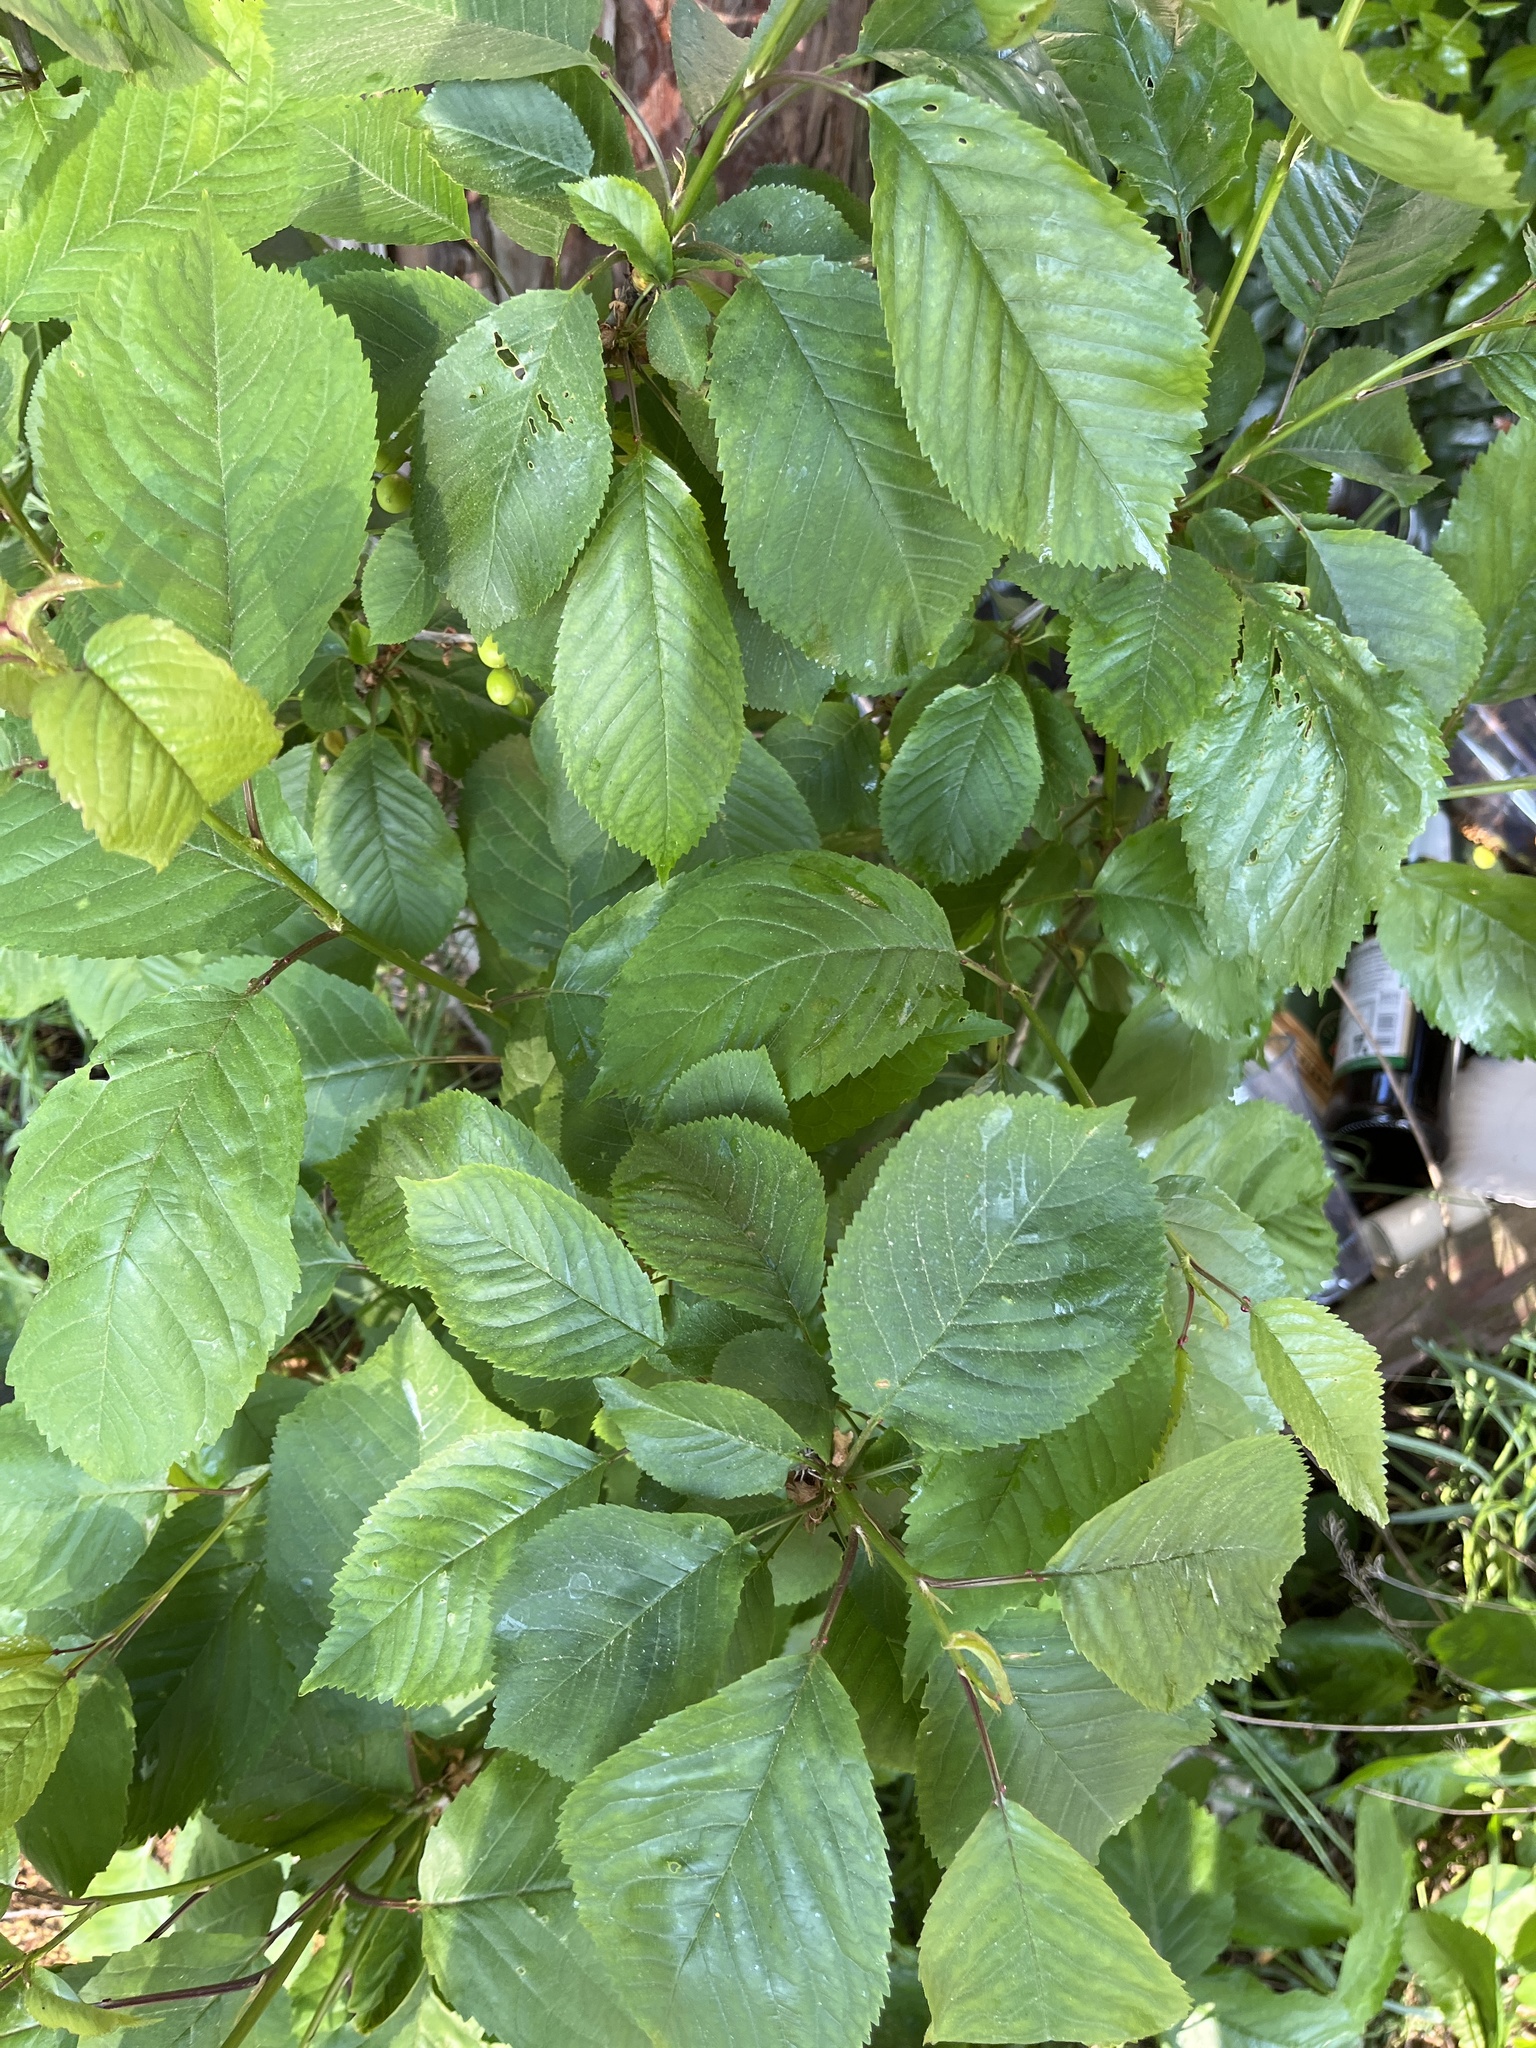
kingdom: Plantae
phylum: Tracheophyta
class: Magnoliopsida
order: Rosales
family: Rosaceae
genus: Prunus
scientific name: Prunus avium
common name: Sweet cherry
